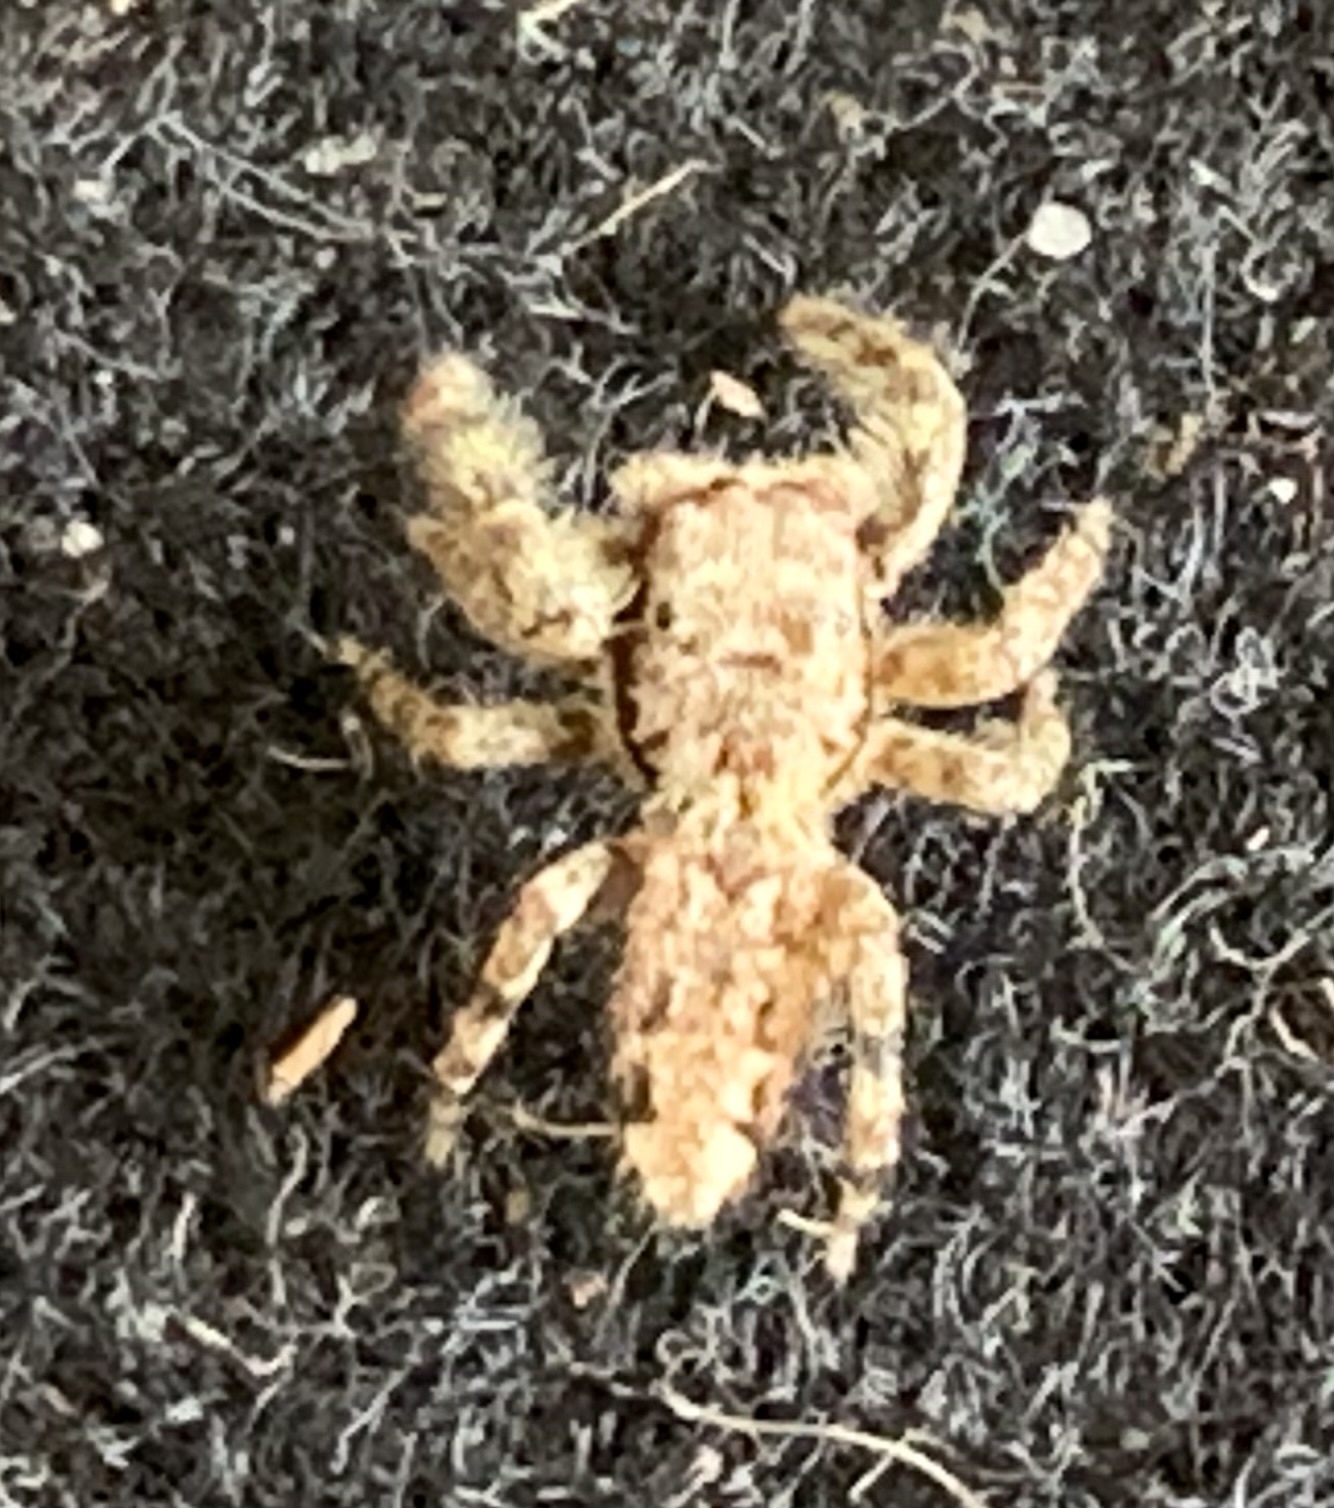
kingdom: Animalia
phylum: Arthropoda
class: Arachnida
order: Araneae
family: Salticidae
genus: Marpissa
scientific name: Marpissa muscosa
